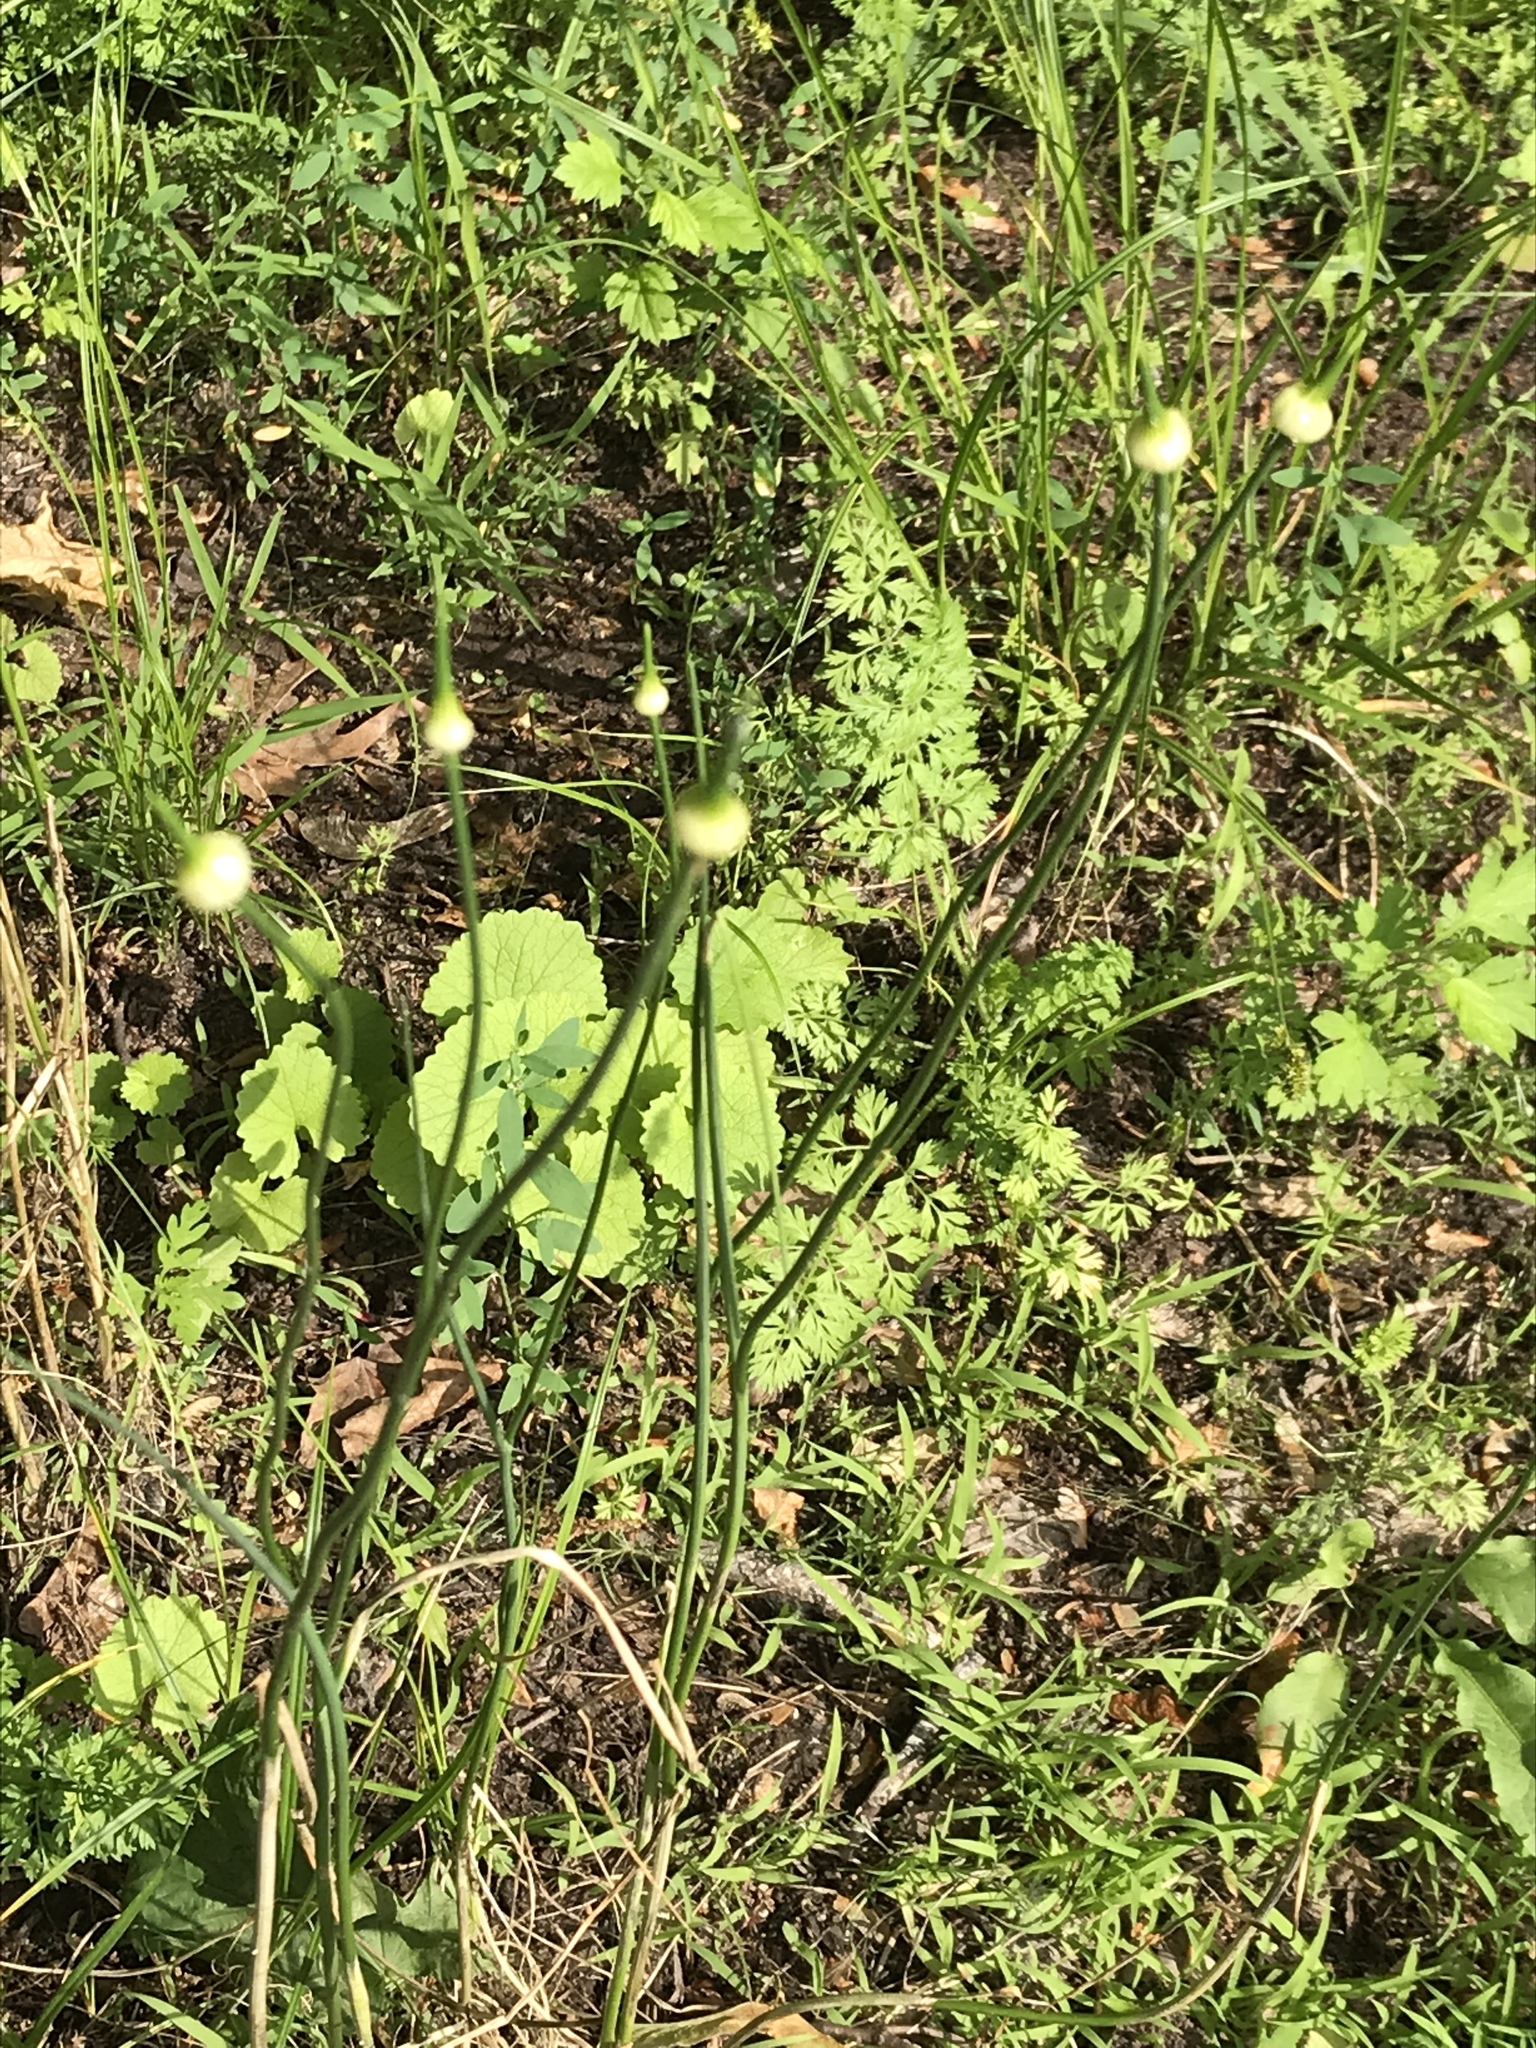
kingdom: Plantae
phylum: Tracheophyta
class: Liliopsida
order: Asparagales
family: Amaryllidaceae
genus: Allium
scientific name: Allium vineale
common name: Crow garlic
